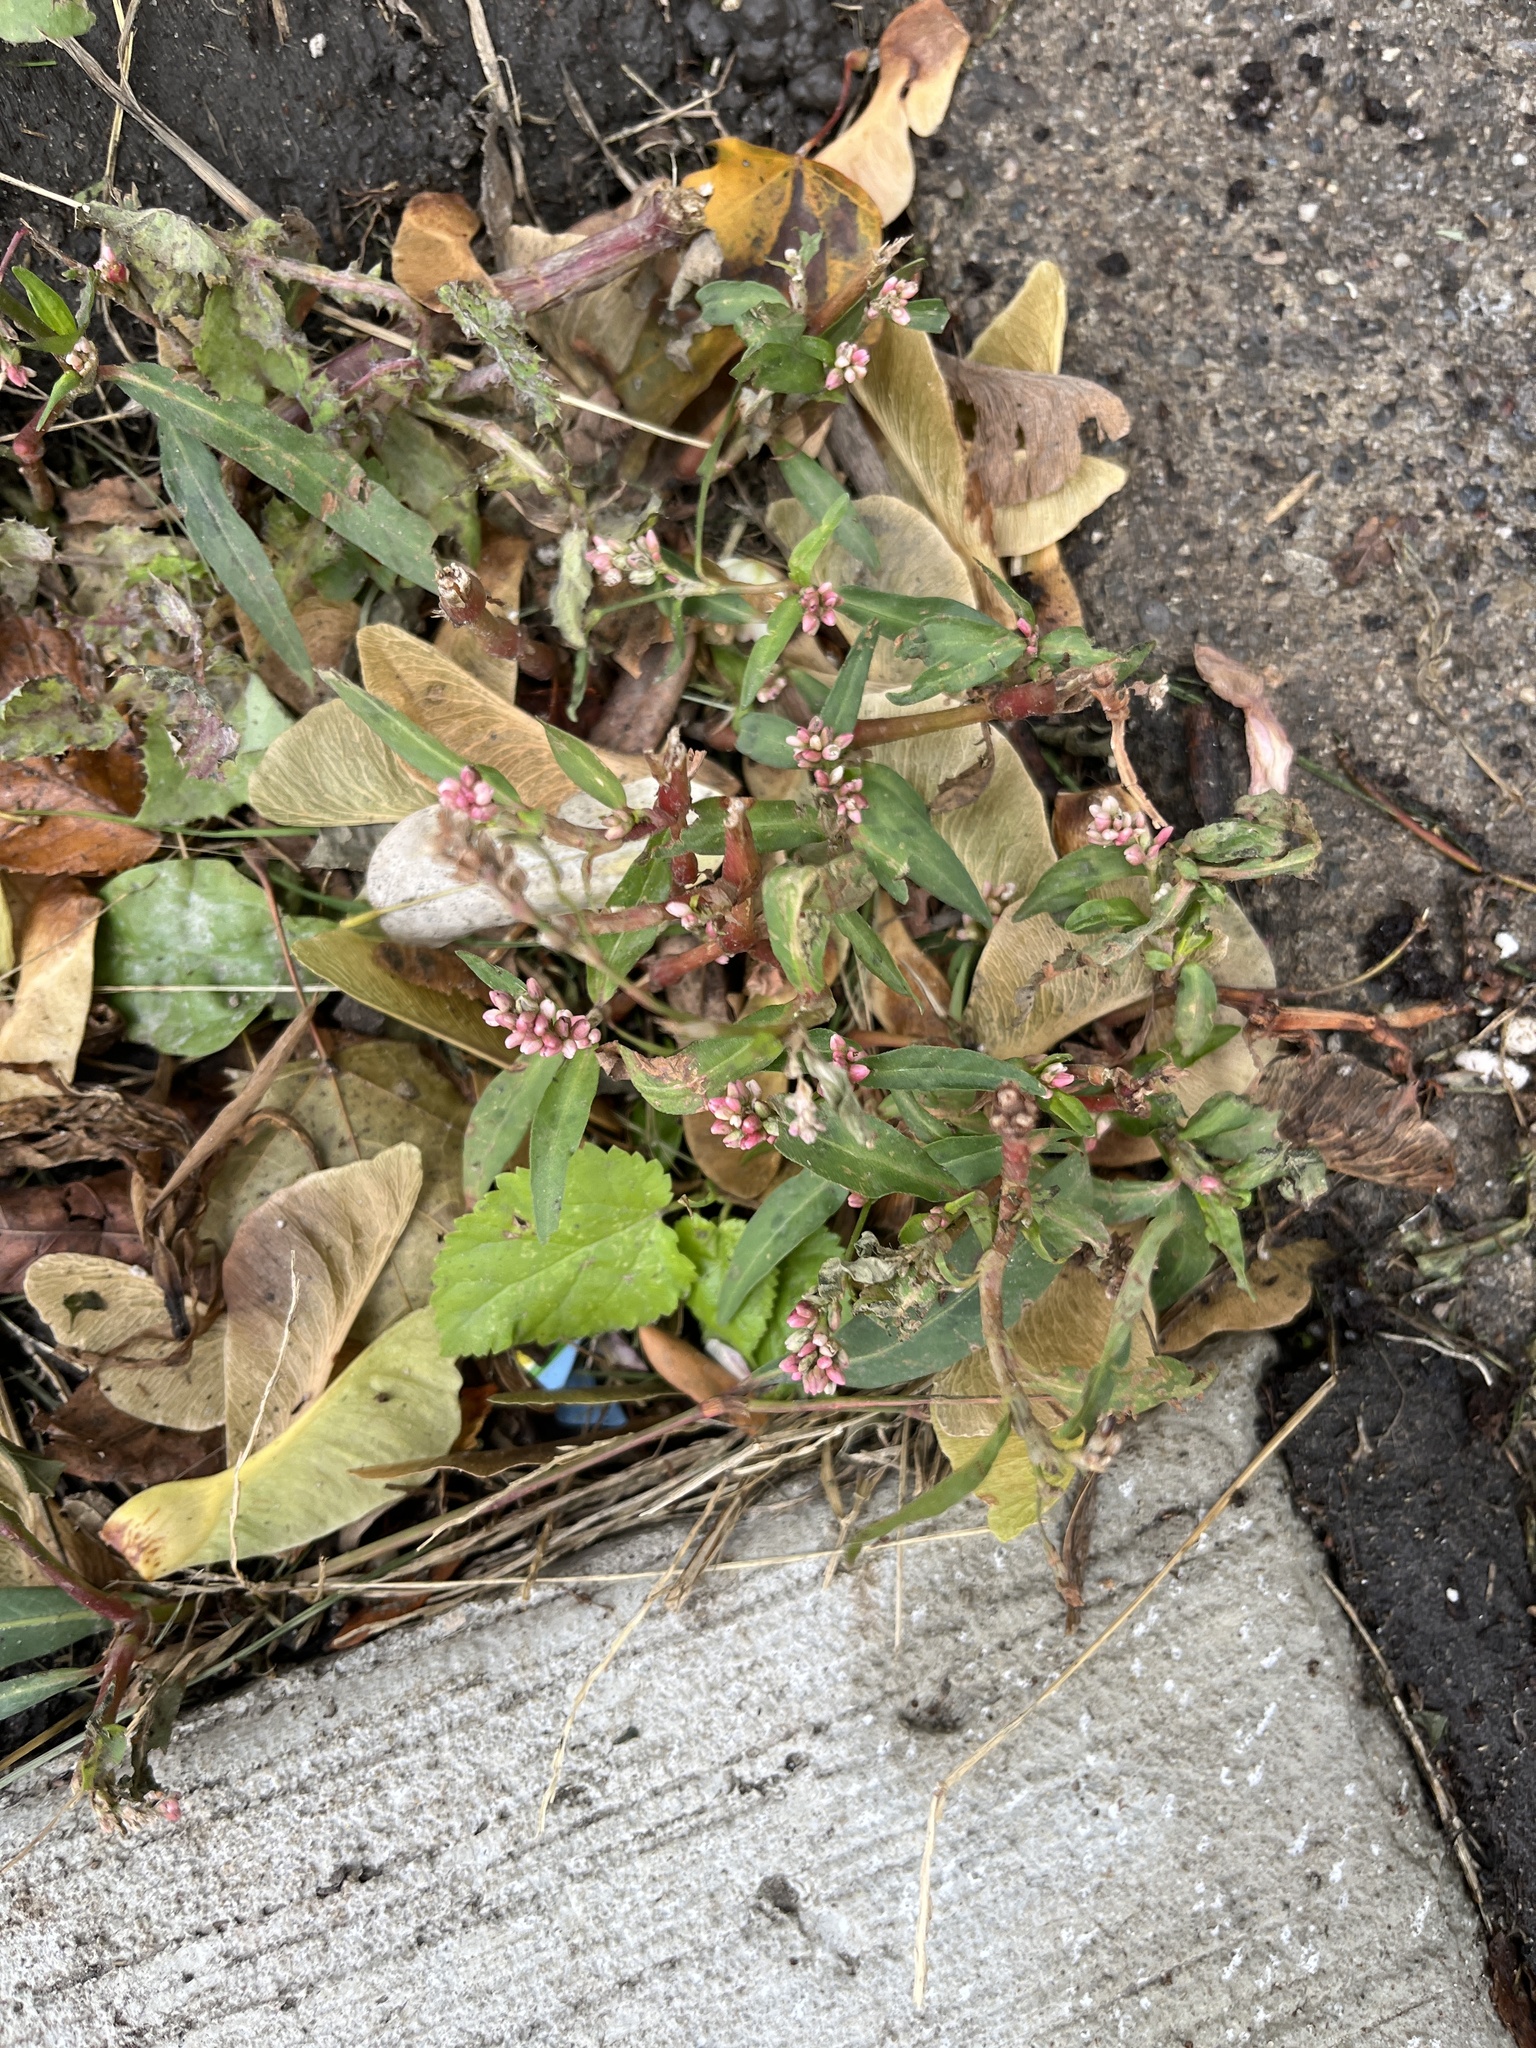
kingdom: Plantae
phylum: Tracheophyta
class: Magnoliopsida
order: Caryophyllales
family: Polygonaceae
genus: Persicaria
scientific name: Persicaria maculosa
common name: Redshank
